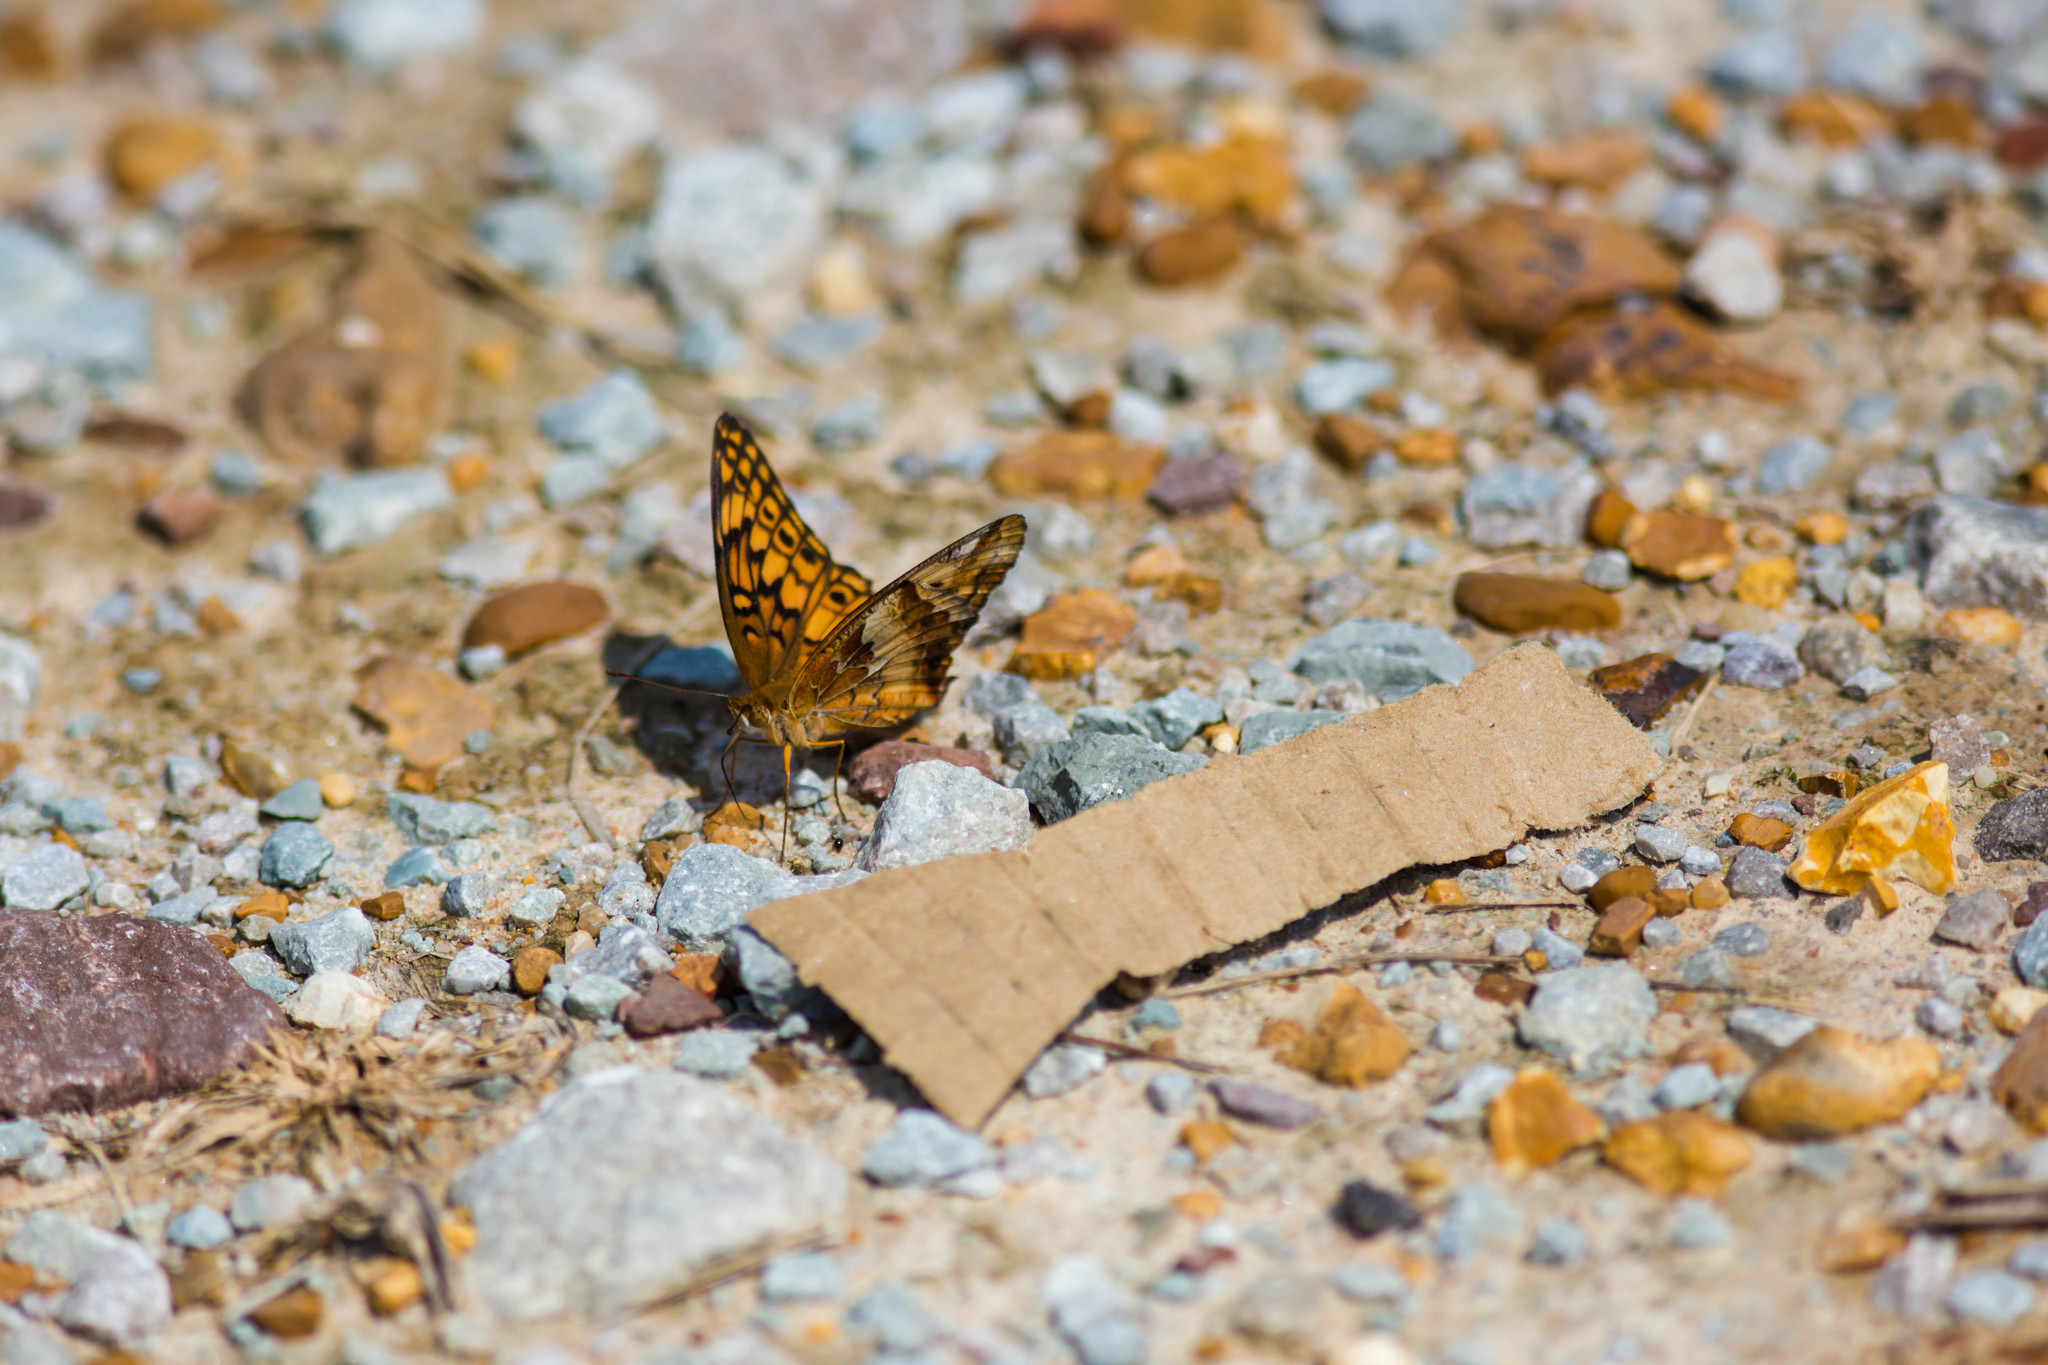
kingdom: Animalia
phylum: Arthropoda
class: Insecta
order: Lepidoptera
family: Nymphalidae
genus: Euptoieta
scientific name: Euptoieta claudia
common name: Variegated fritillary
